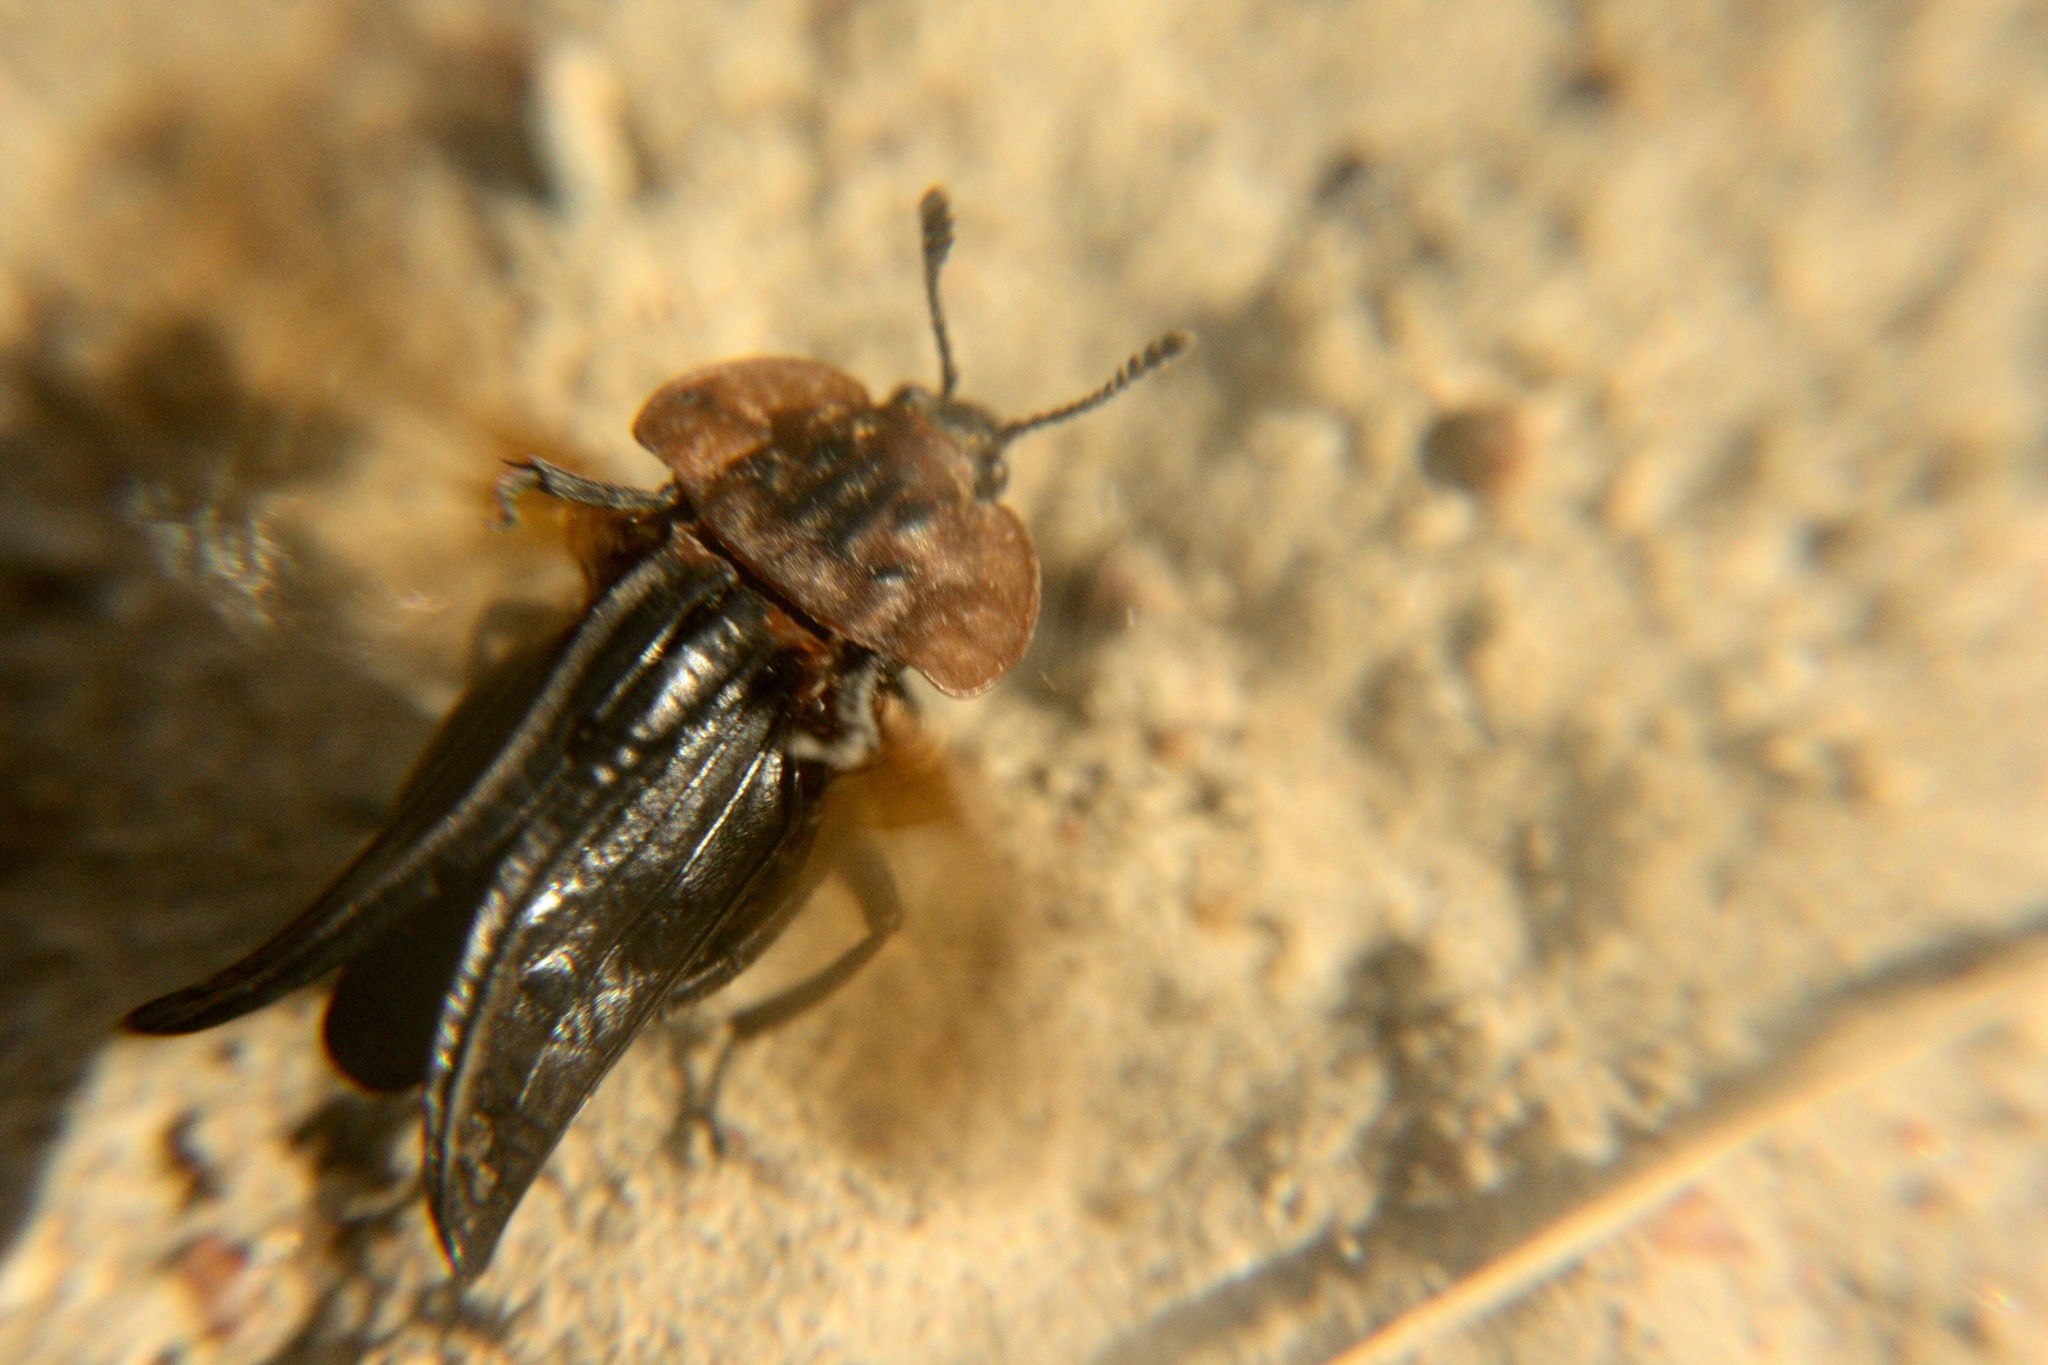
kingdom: Animalia
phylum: Arthropoda
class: Insecta
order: Coleoptera
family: Staphylinidae
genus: Oiceoptoma
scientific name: Oiceoptoma thoracicum
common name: Red-breasted carrion beetle
